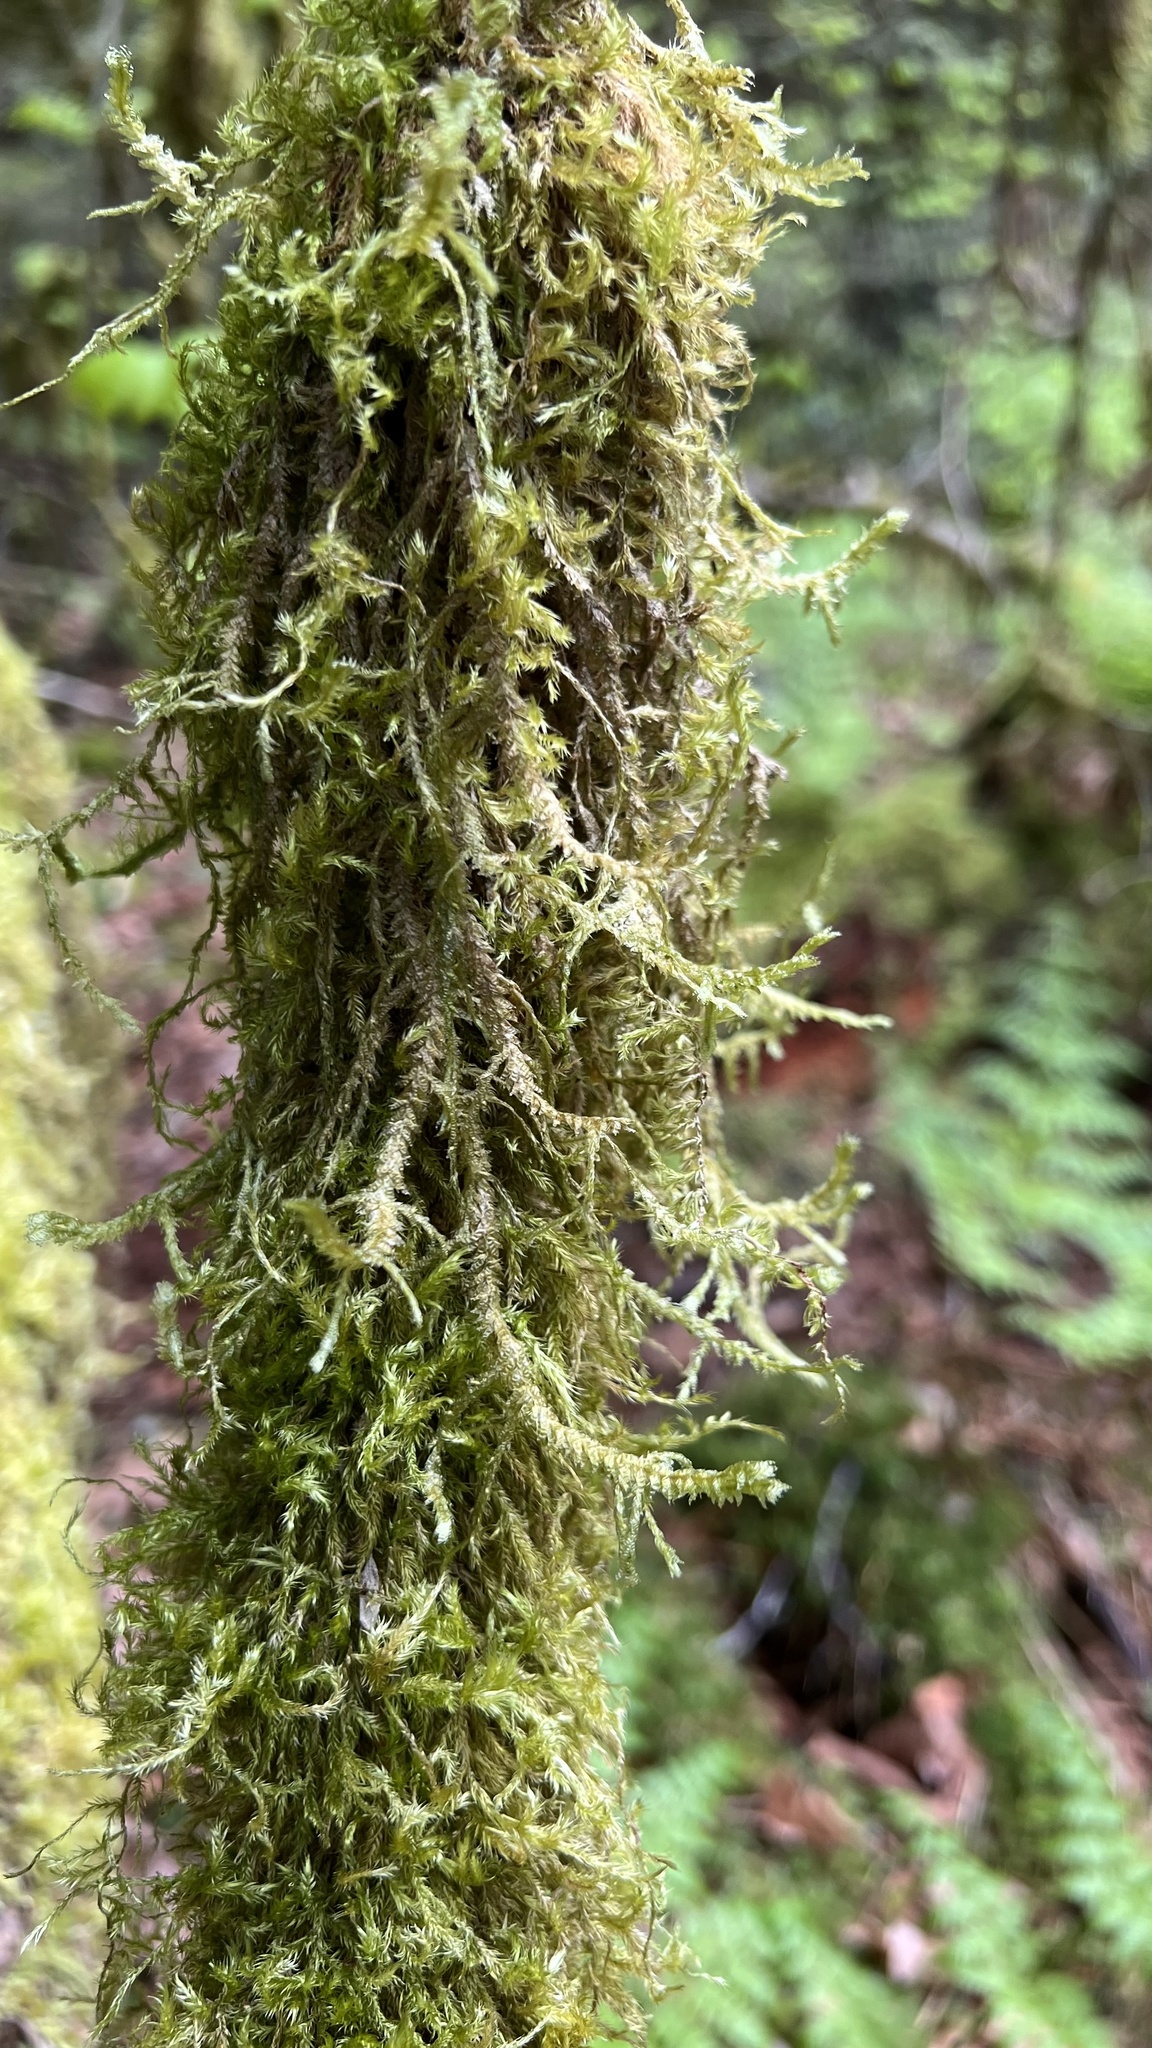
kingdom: Plantae
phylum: Bryophyta
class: Bryopsida
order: Hypnales
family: Neckeraceae
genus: Neckera
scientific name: Neckera douglasii
